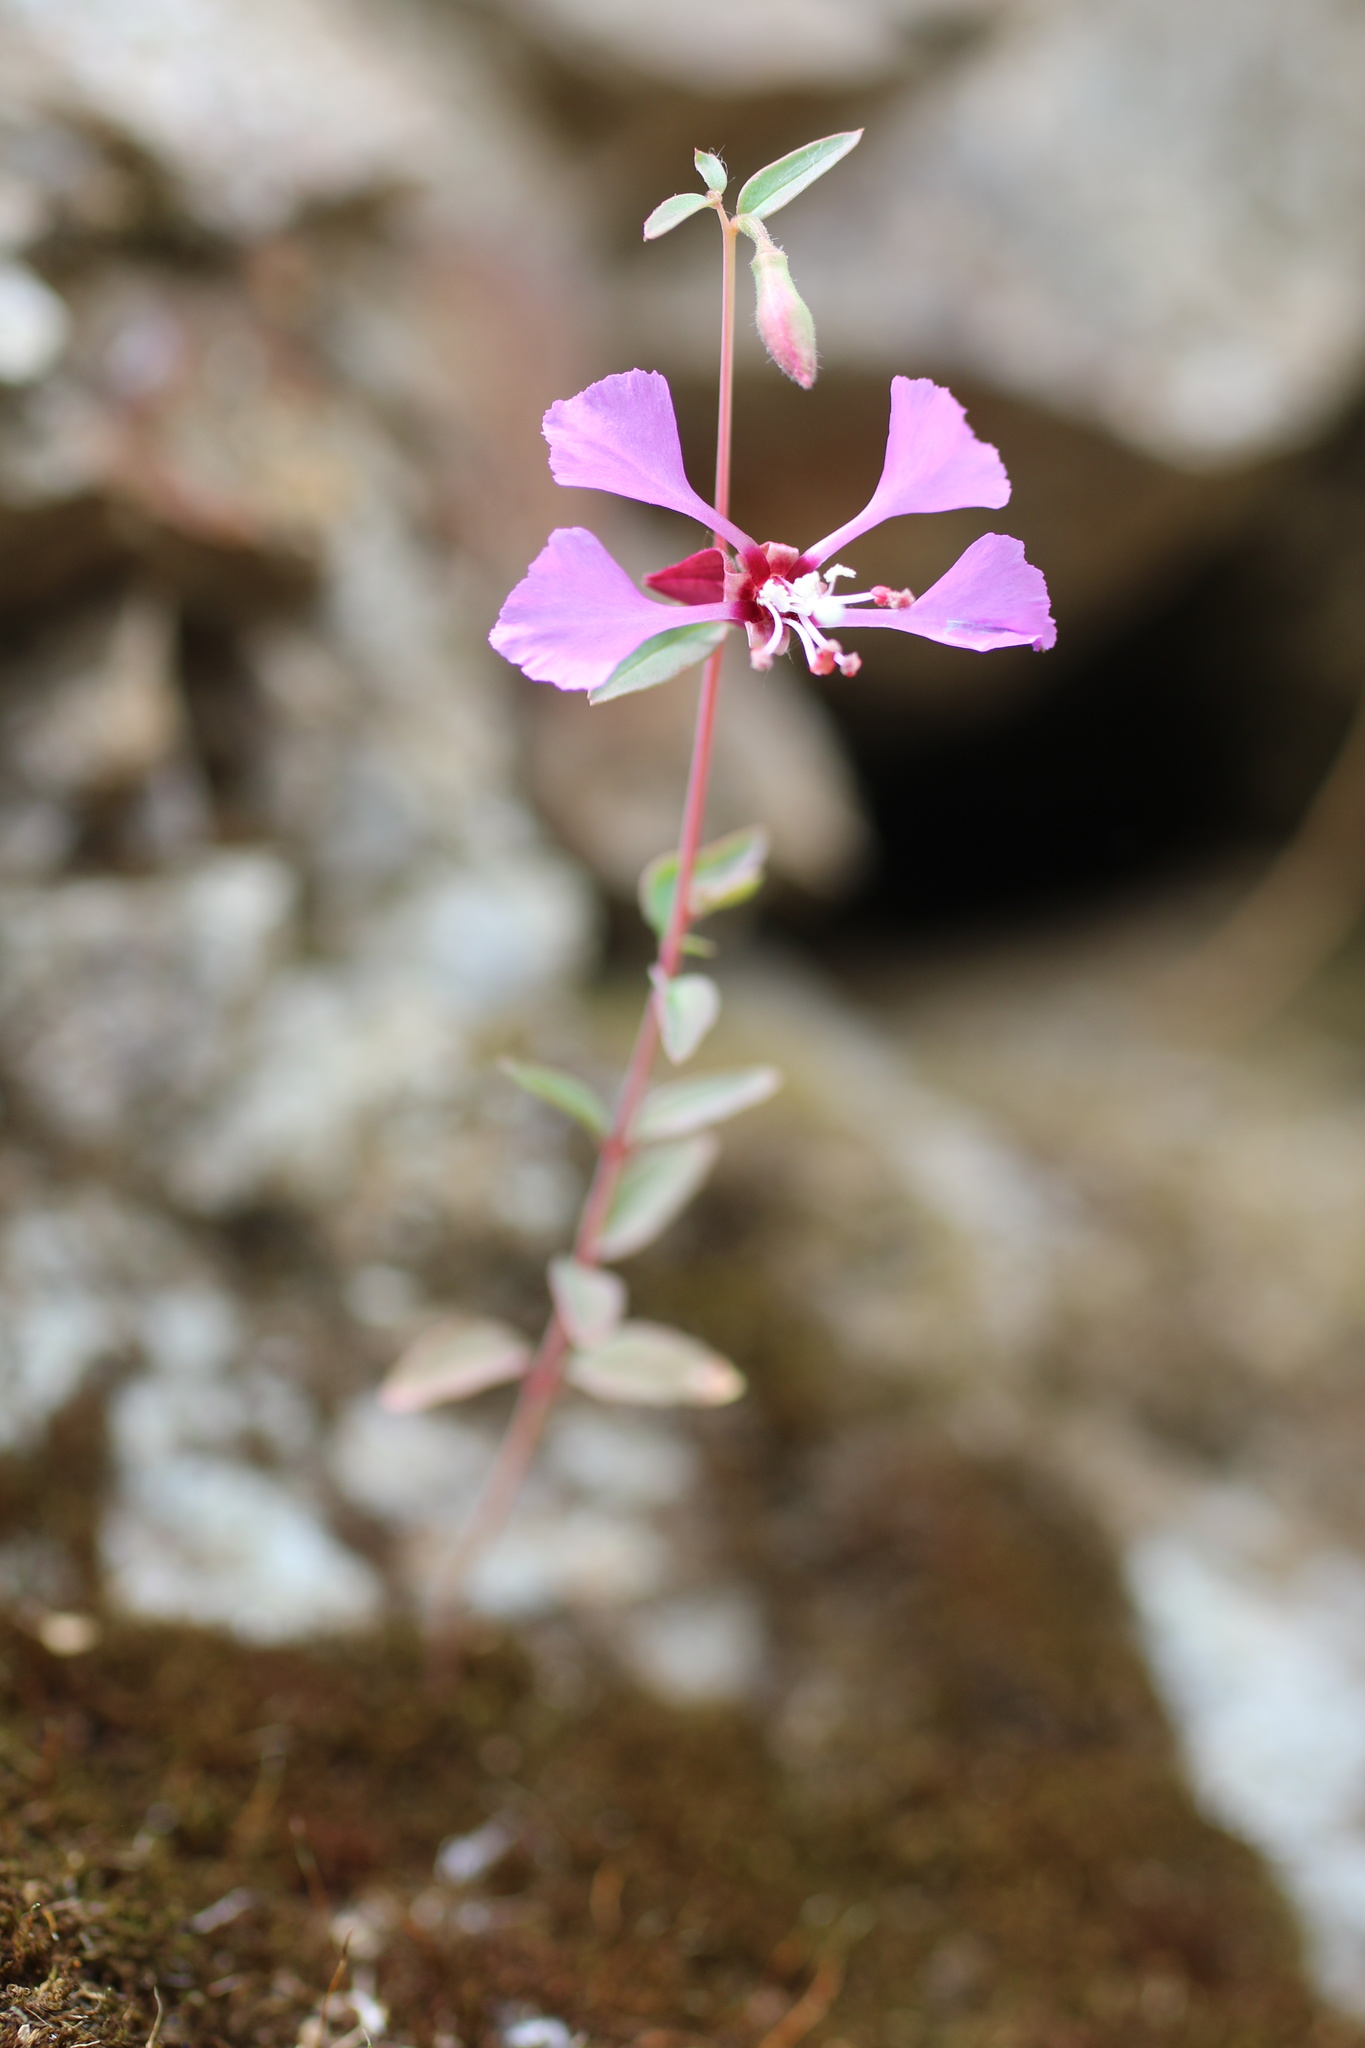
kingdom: Plantae
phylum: Tracheophyta
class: Magnoliopsida
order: Myrtales
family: Onagraceae
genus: Clarkia
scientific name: Clarkia unguiculata
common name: Clarkia
